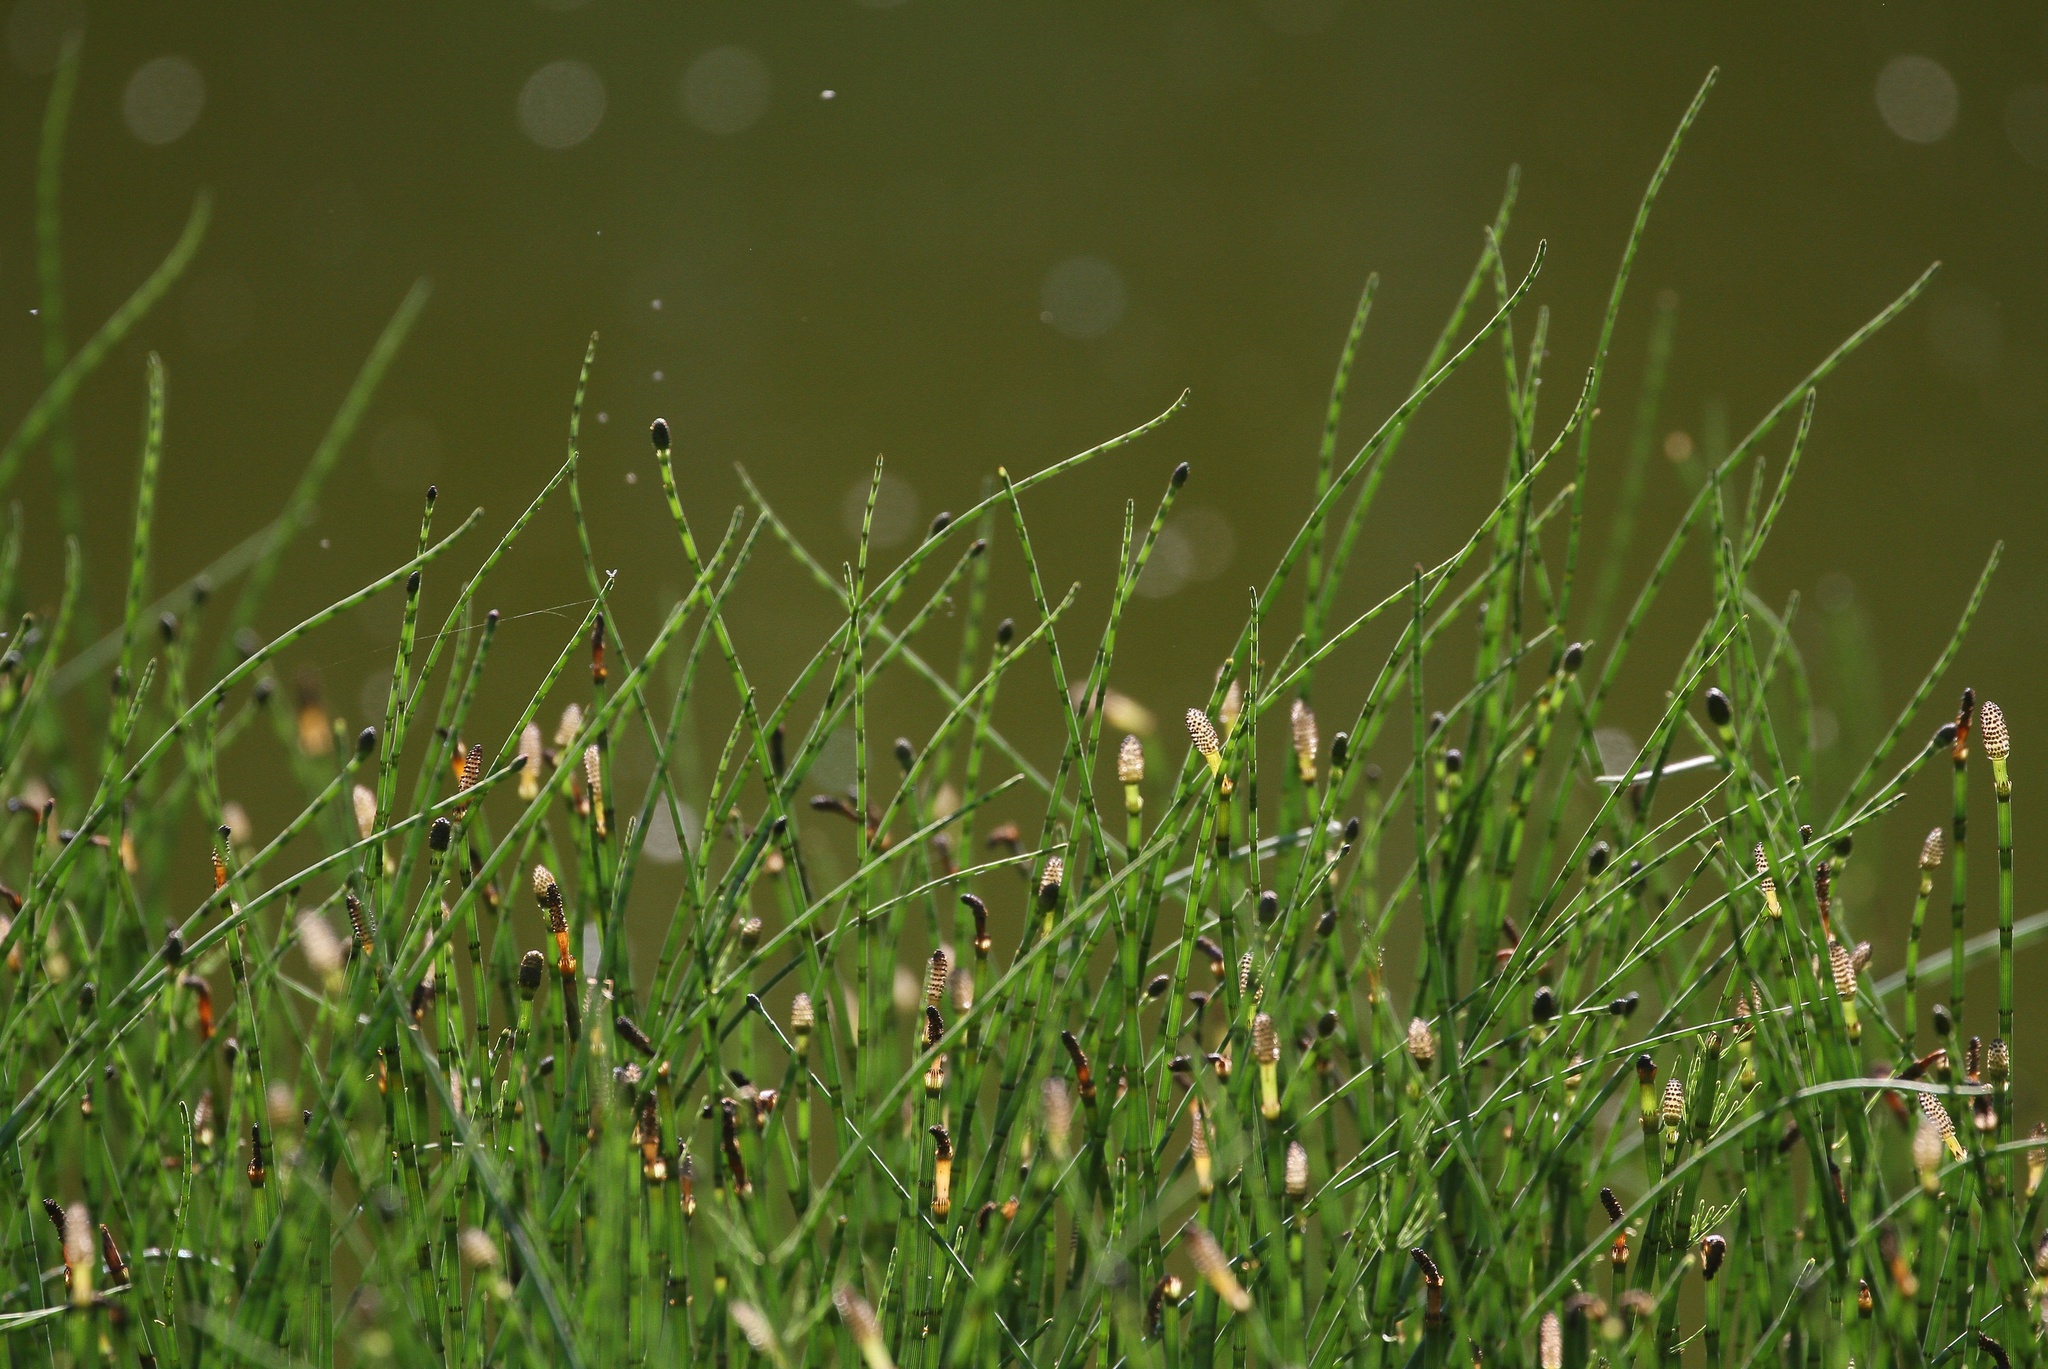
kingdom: Plantae
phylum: Tracheophyta
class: Polypodiopsida
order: Equisetales
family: Equisetaceae
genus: Equisetum
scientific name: Equisetum fluviatile
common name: Water horsetail
